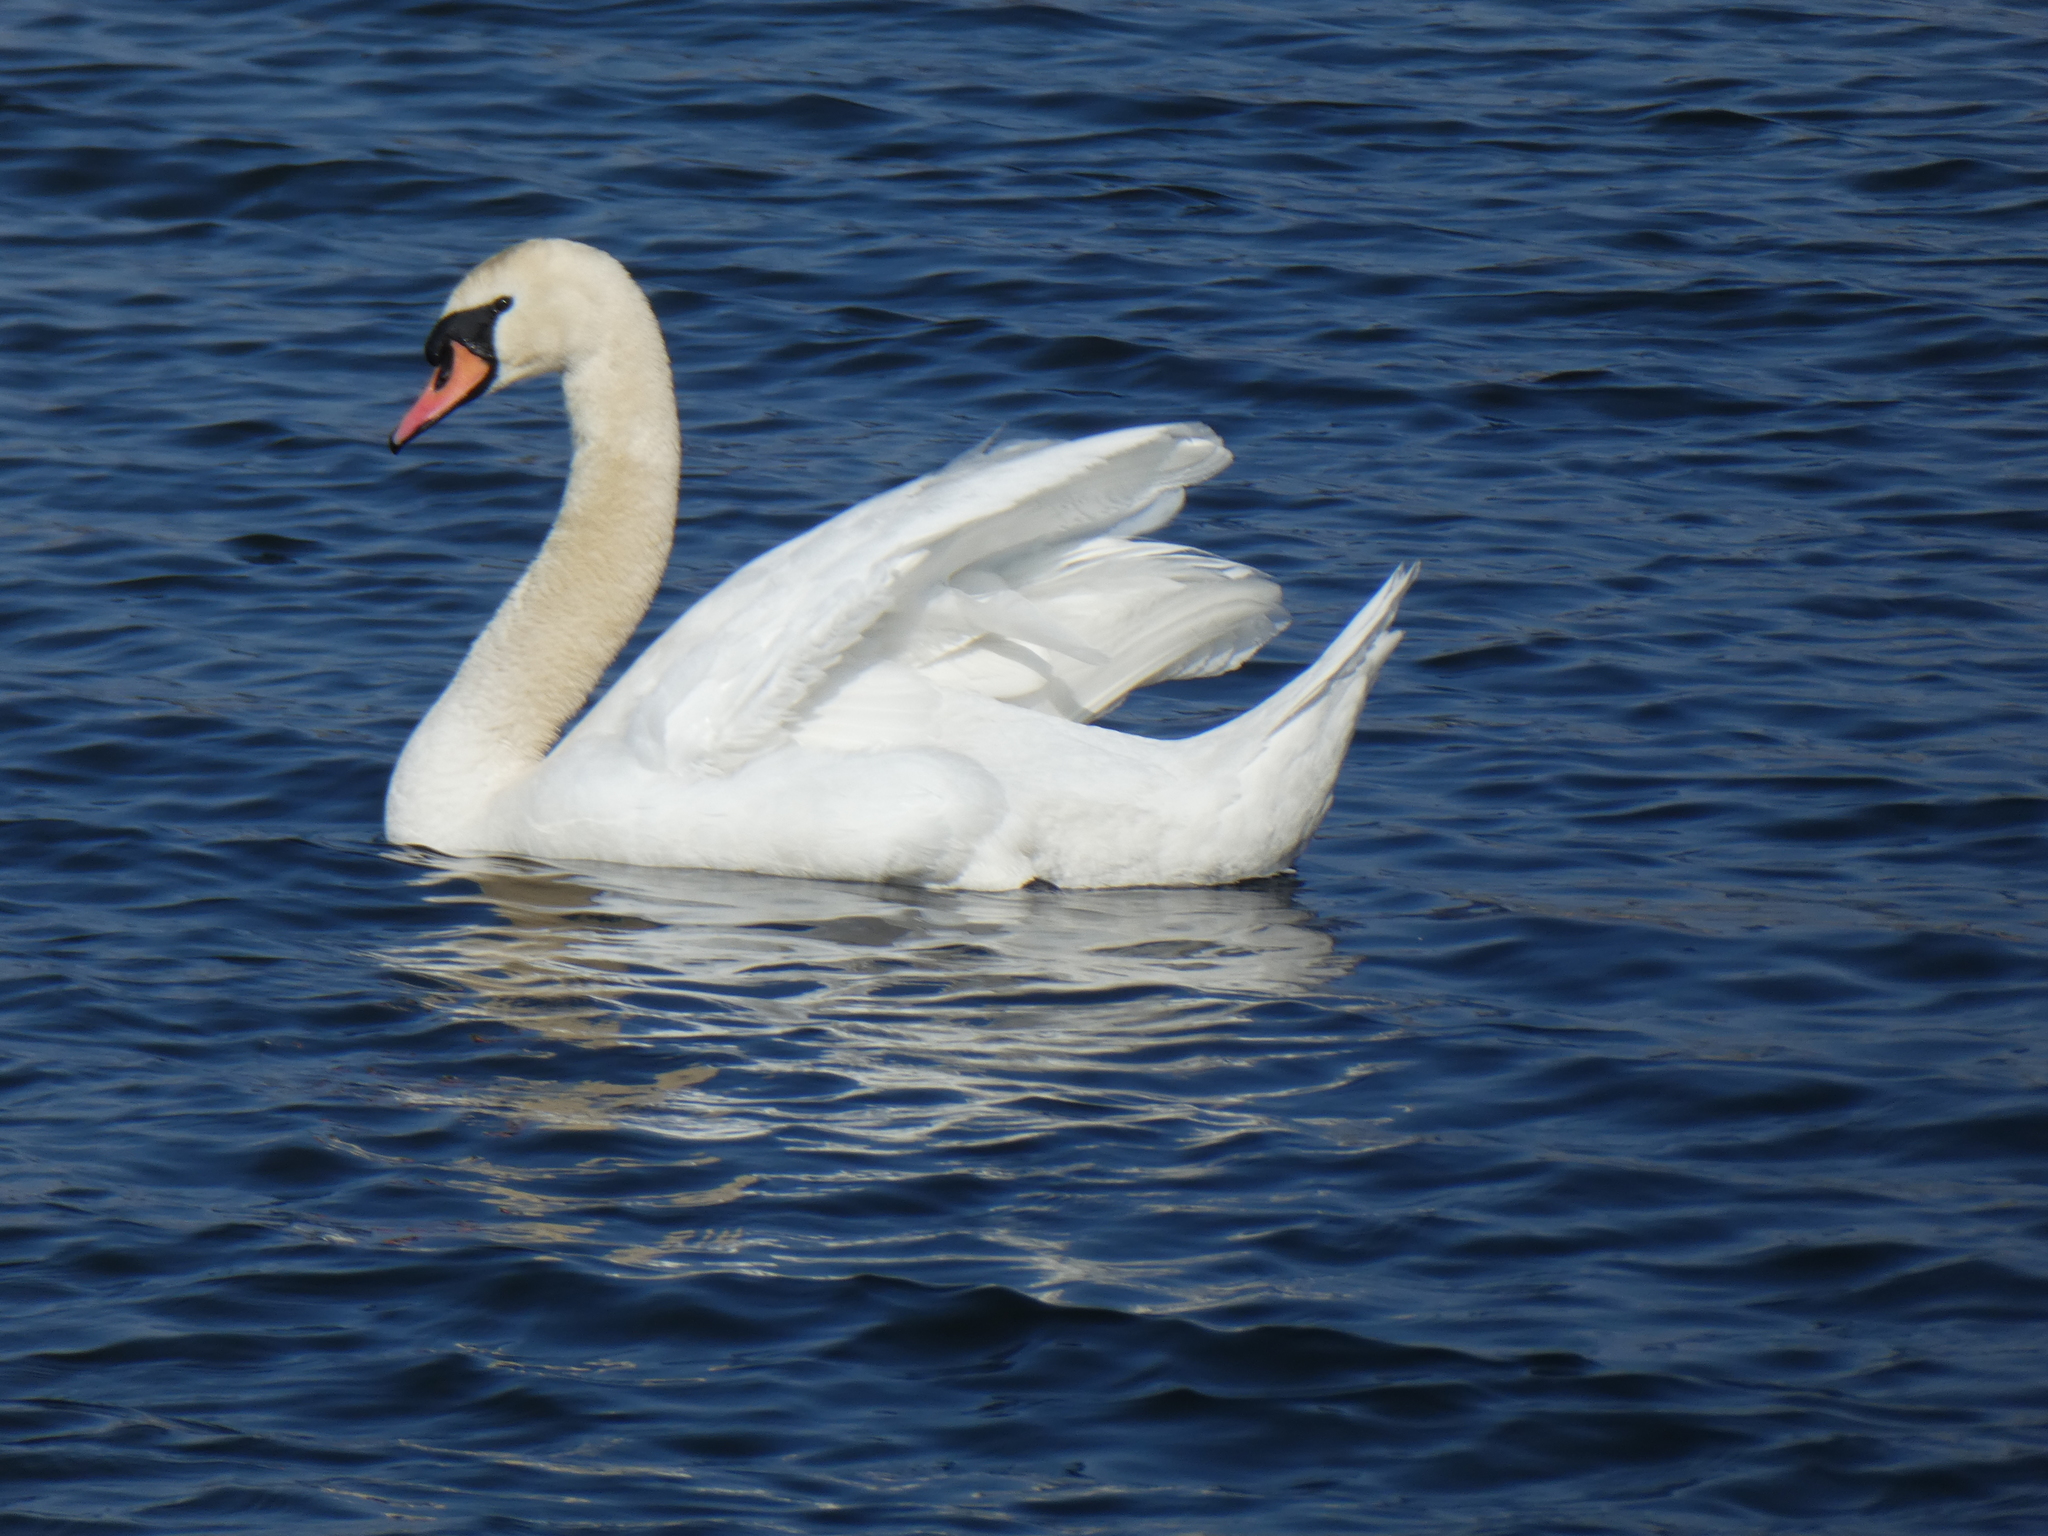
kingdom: Animalia
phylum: Chordata
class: Aves
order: Anseriformes
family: Anatidae
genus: Cygnus
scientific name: Cygnus olor
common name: Mute swan
